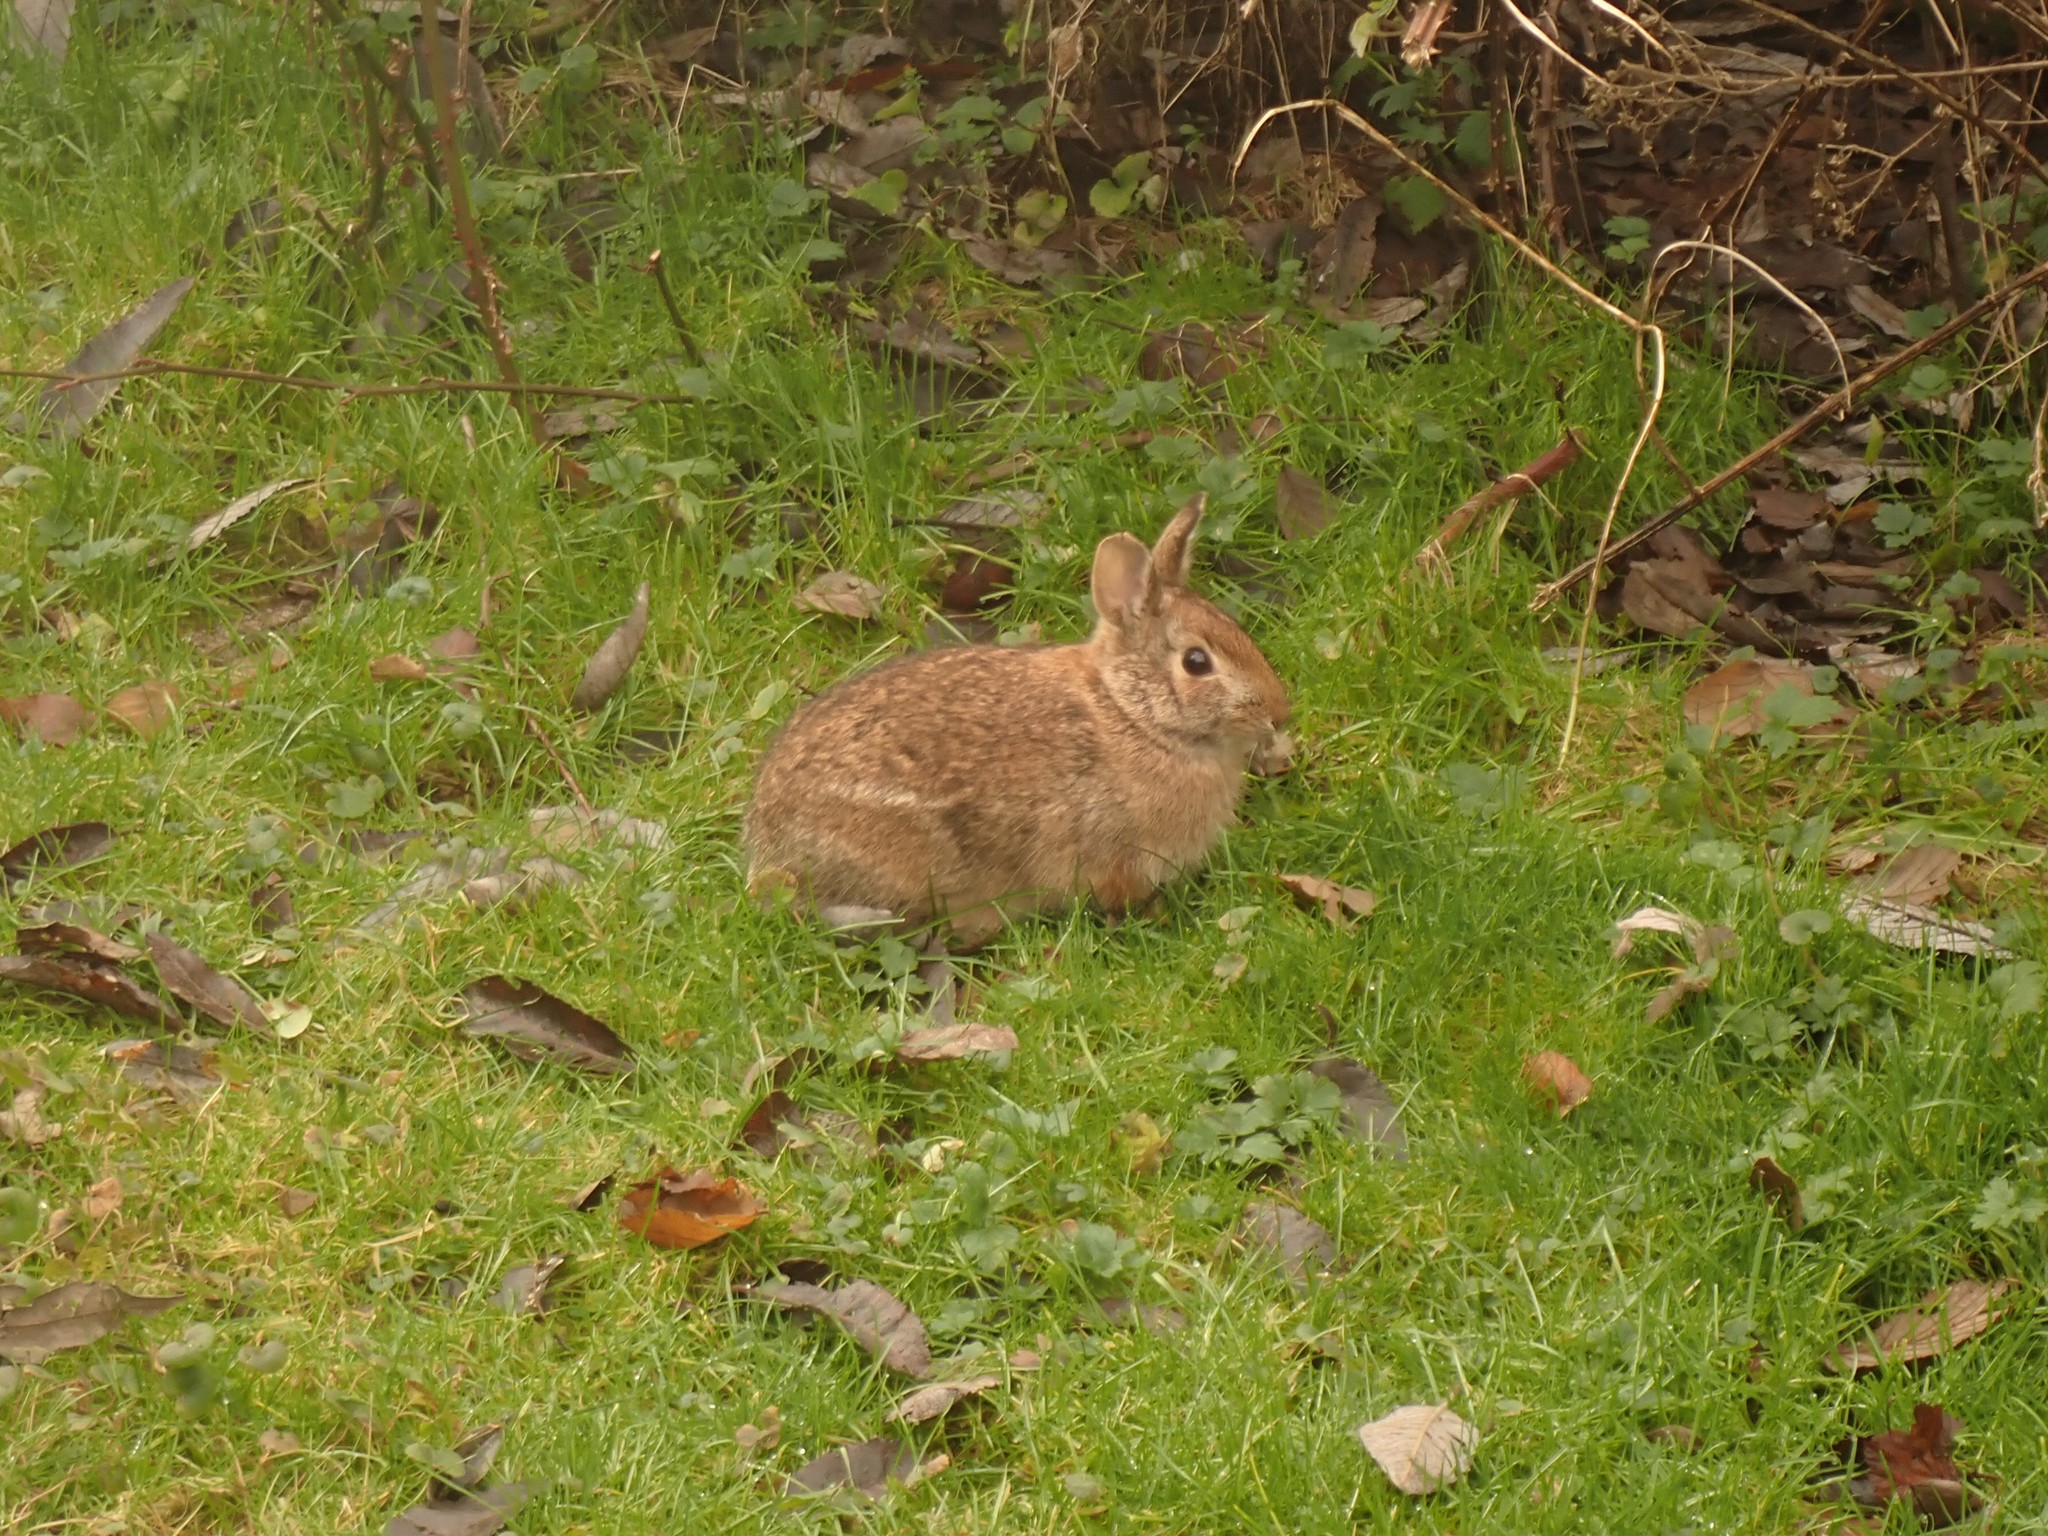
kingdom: Animalia
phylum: Chordata
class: Mammalia
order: Lagomorpha
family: Leporidae
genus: Sylvilagus
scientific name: Sylvilagus floridanus
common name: Eastern cottontail
